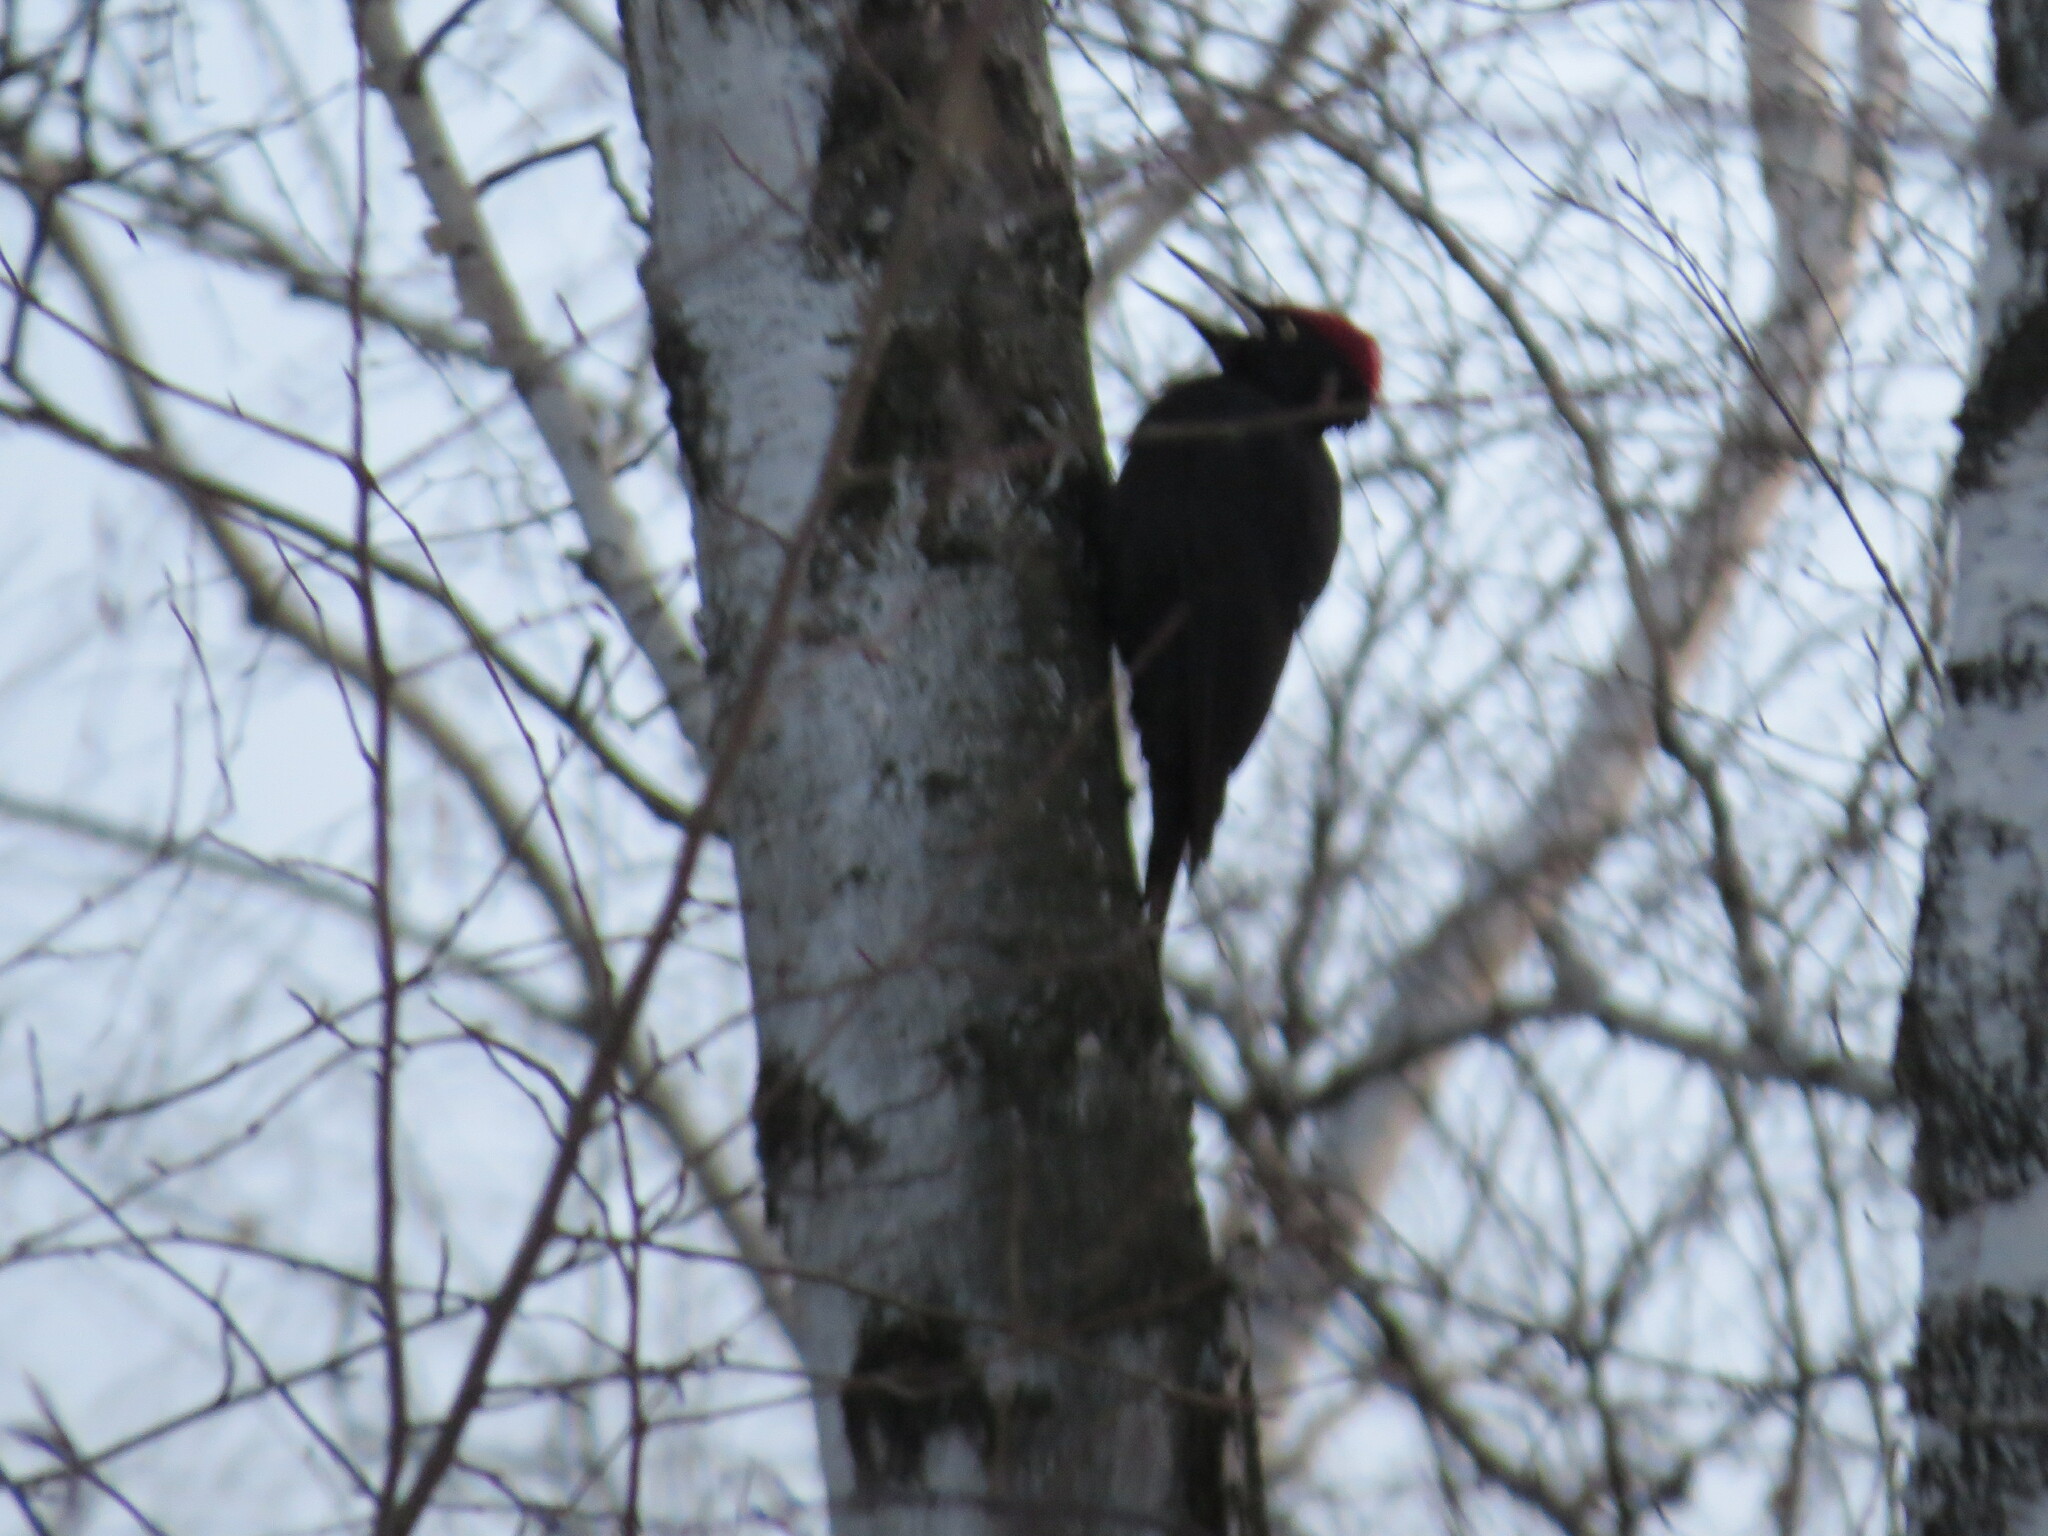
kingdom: Animalia
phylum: Chordata
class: Aves
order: Piciformes
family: Picidae
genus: Dryocopus
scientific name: Dryocopus martius
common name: Black woodpecker
